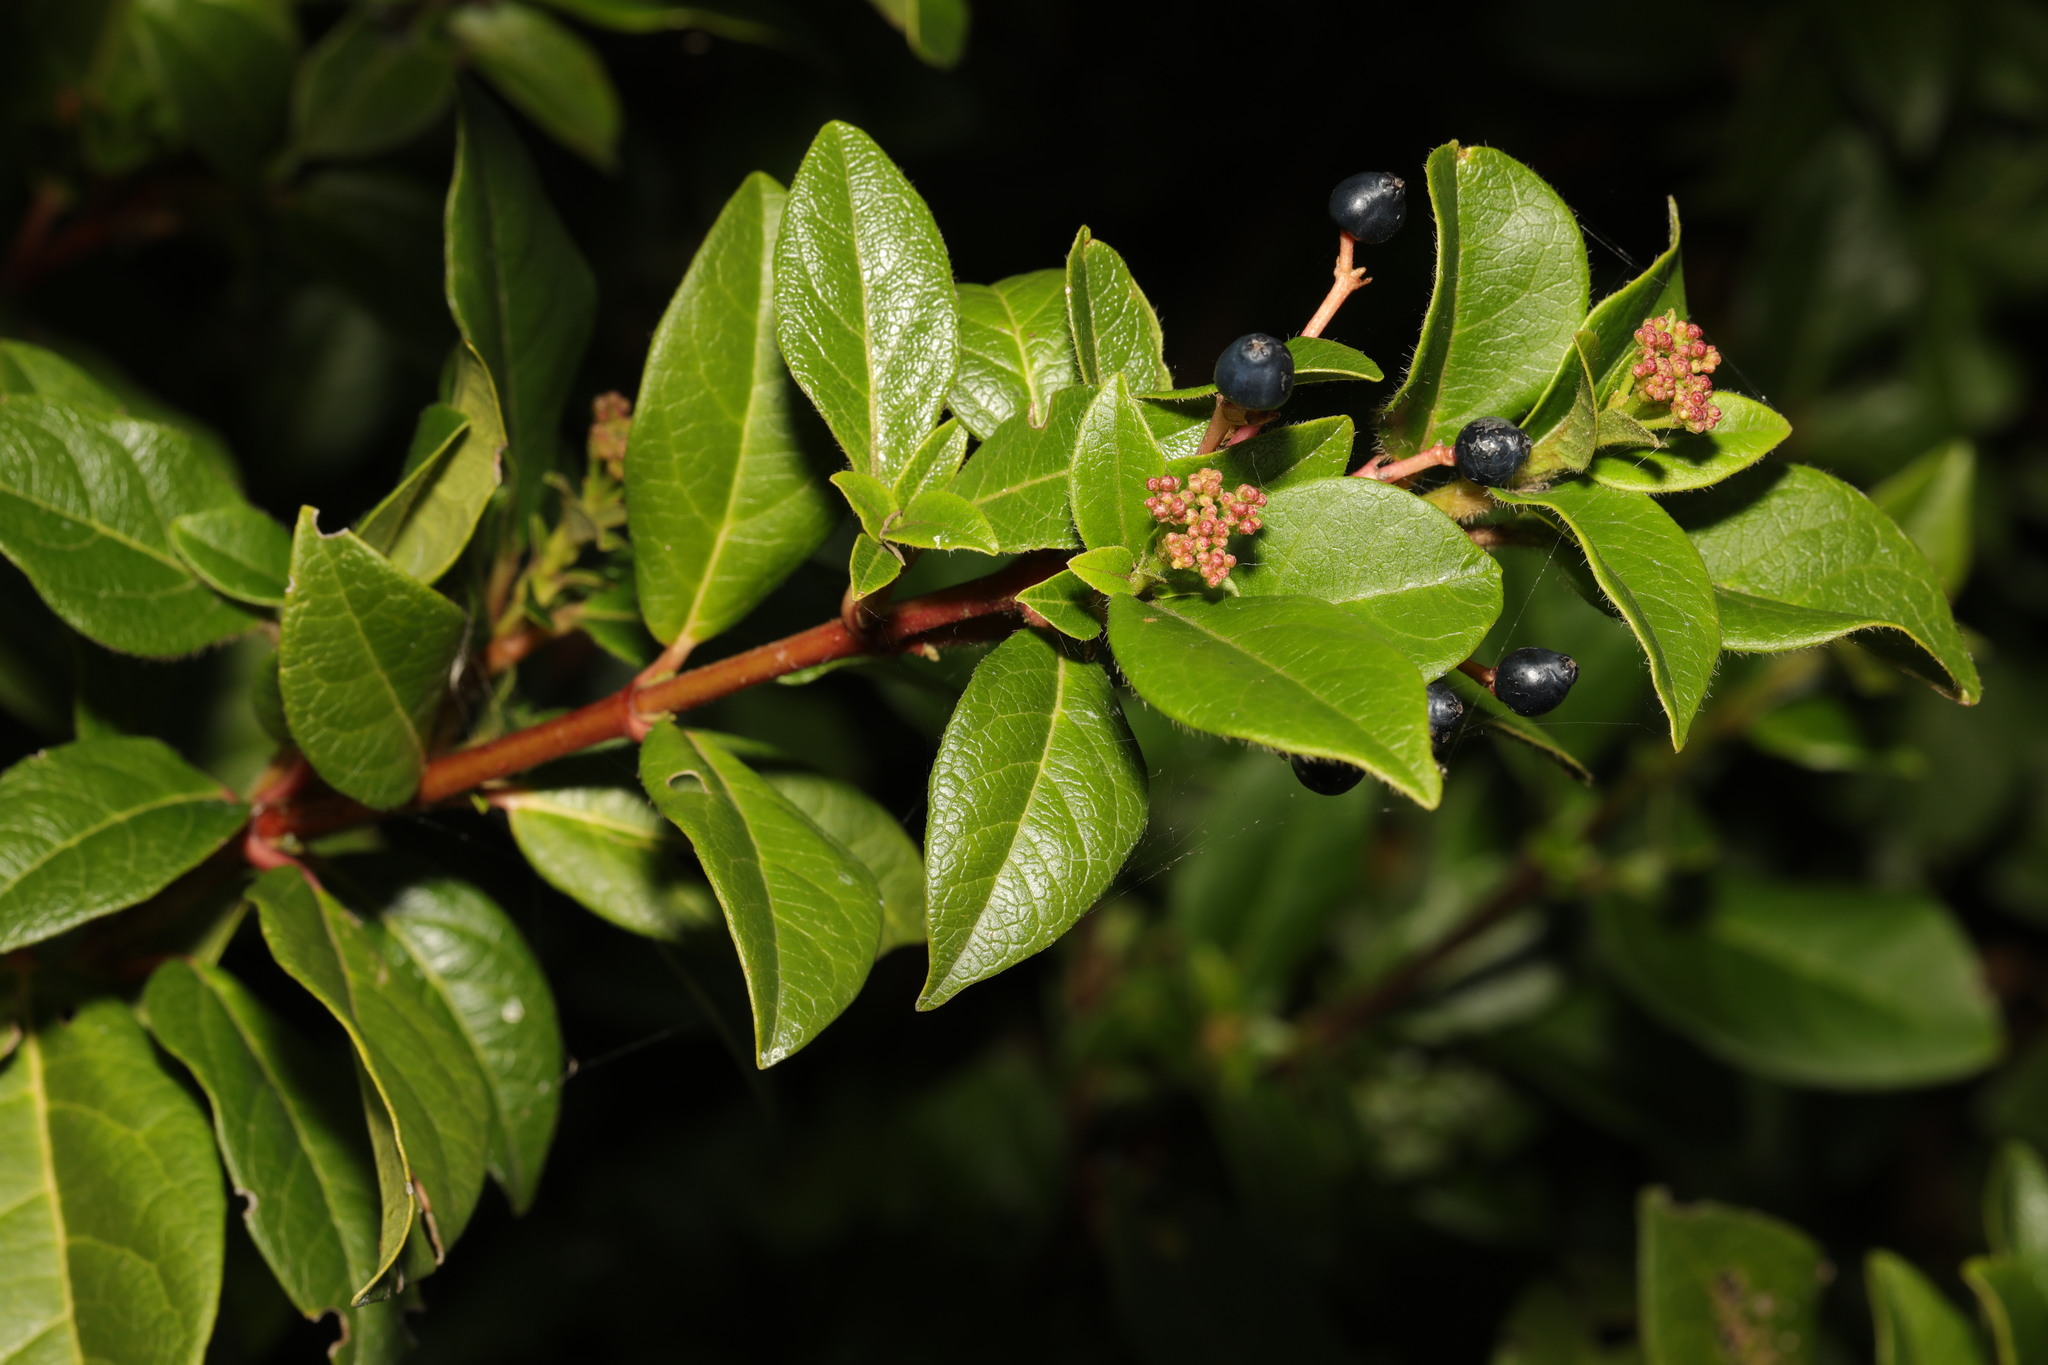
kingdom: Plantae
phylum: Tracheophyta
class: Magnoliopsida
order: Dipsacales
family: Viburnaceae
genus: Viburnum
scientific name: Viburnum tinus
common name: Laurustinus
